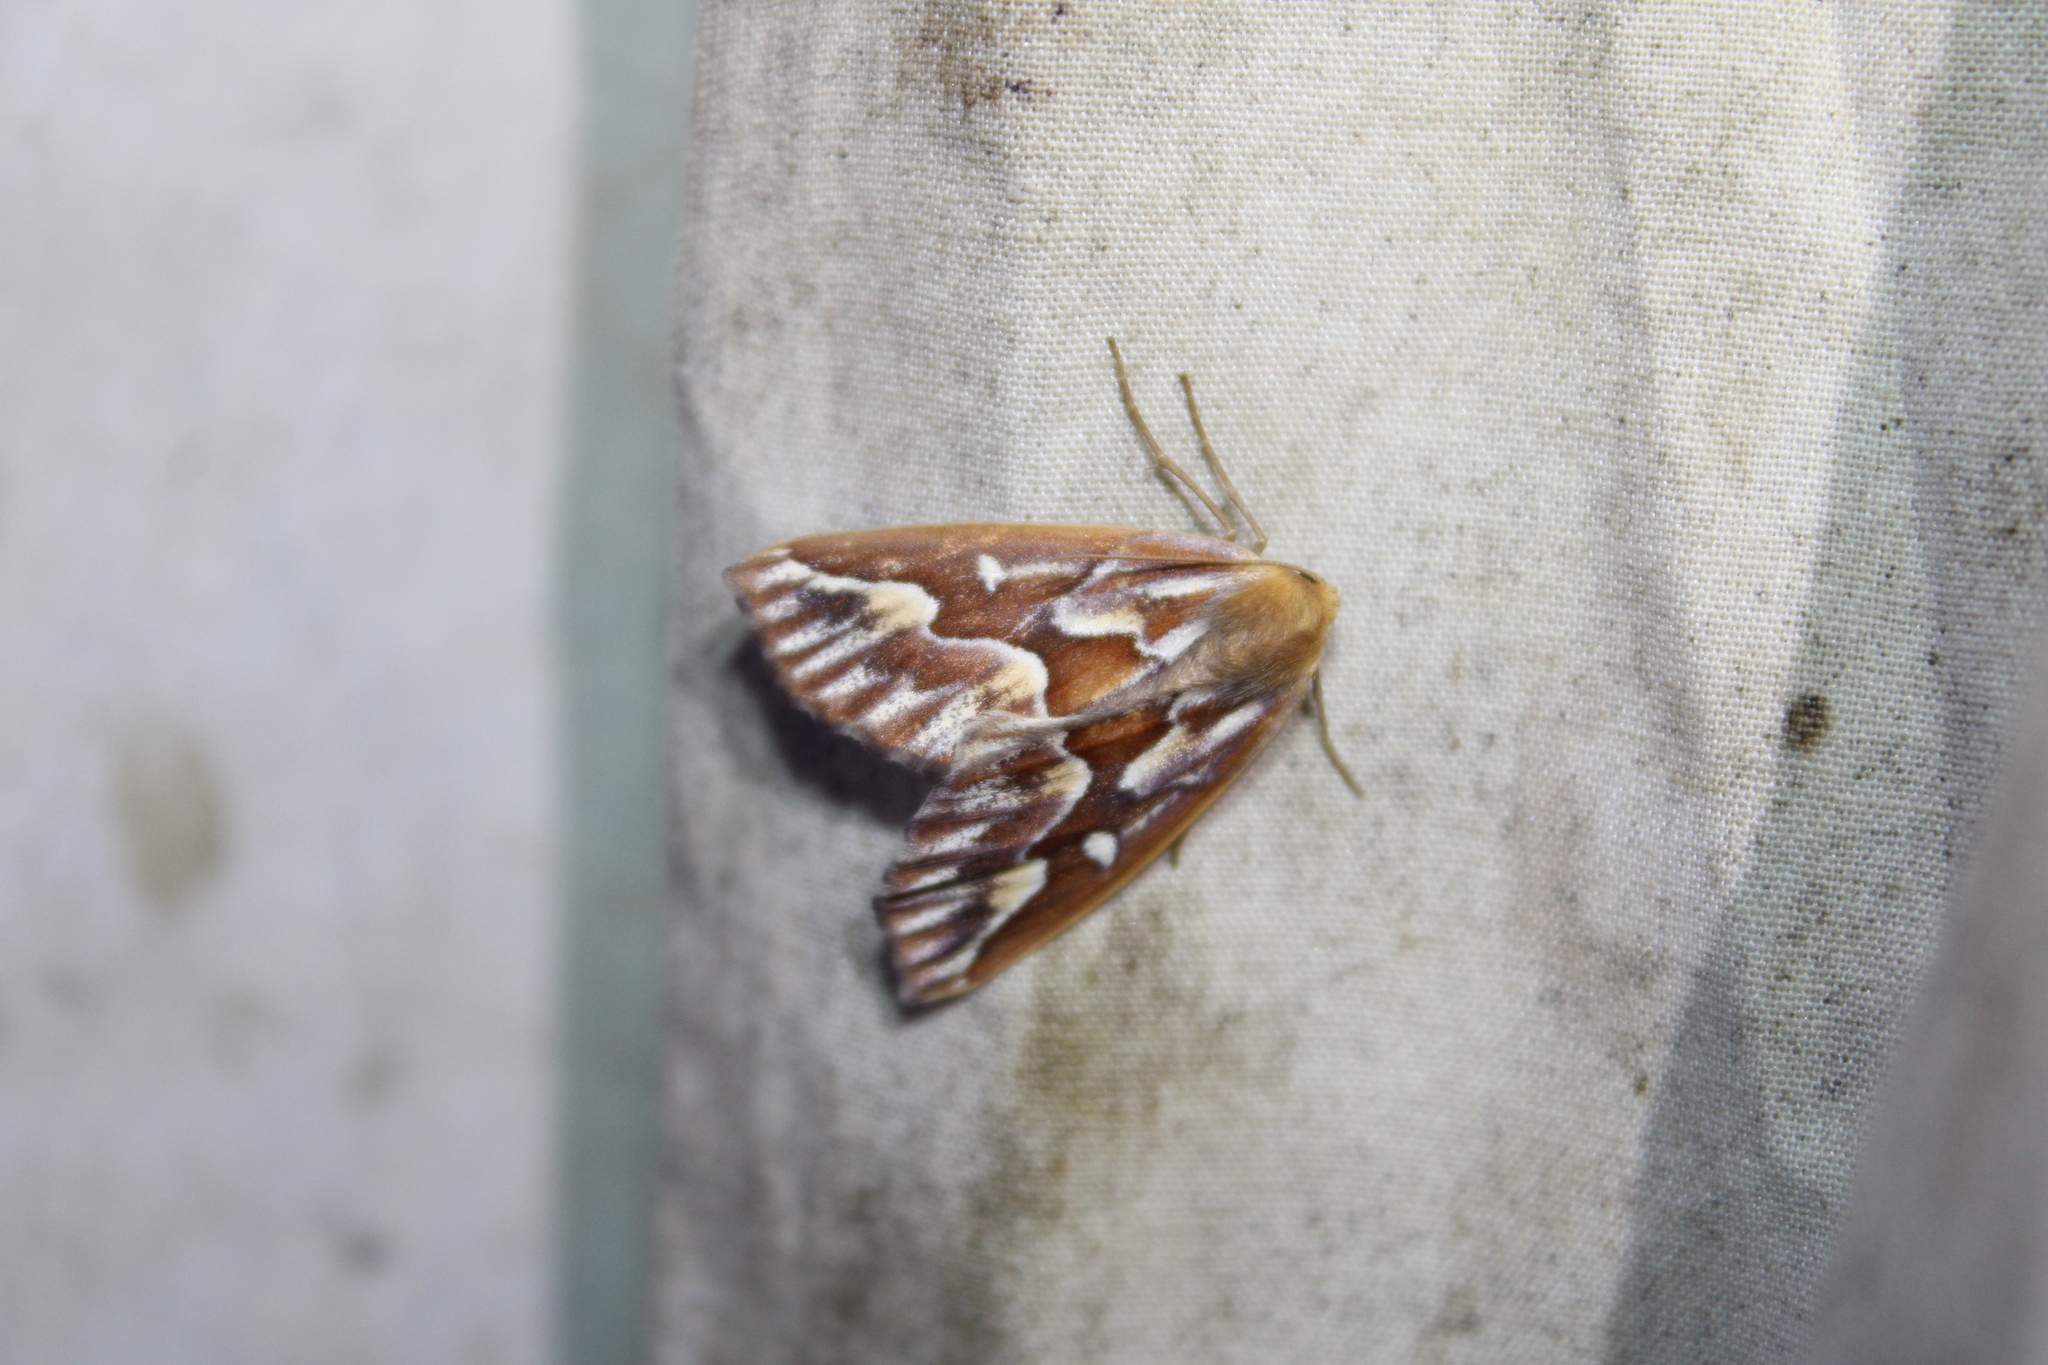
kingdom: Animalia
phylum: Arthropoda
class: Insecta
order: Lepidoptera
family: Geometridae
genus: Caripeta
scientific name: Caripeta piniata
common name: Northern pine looper moth
